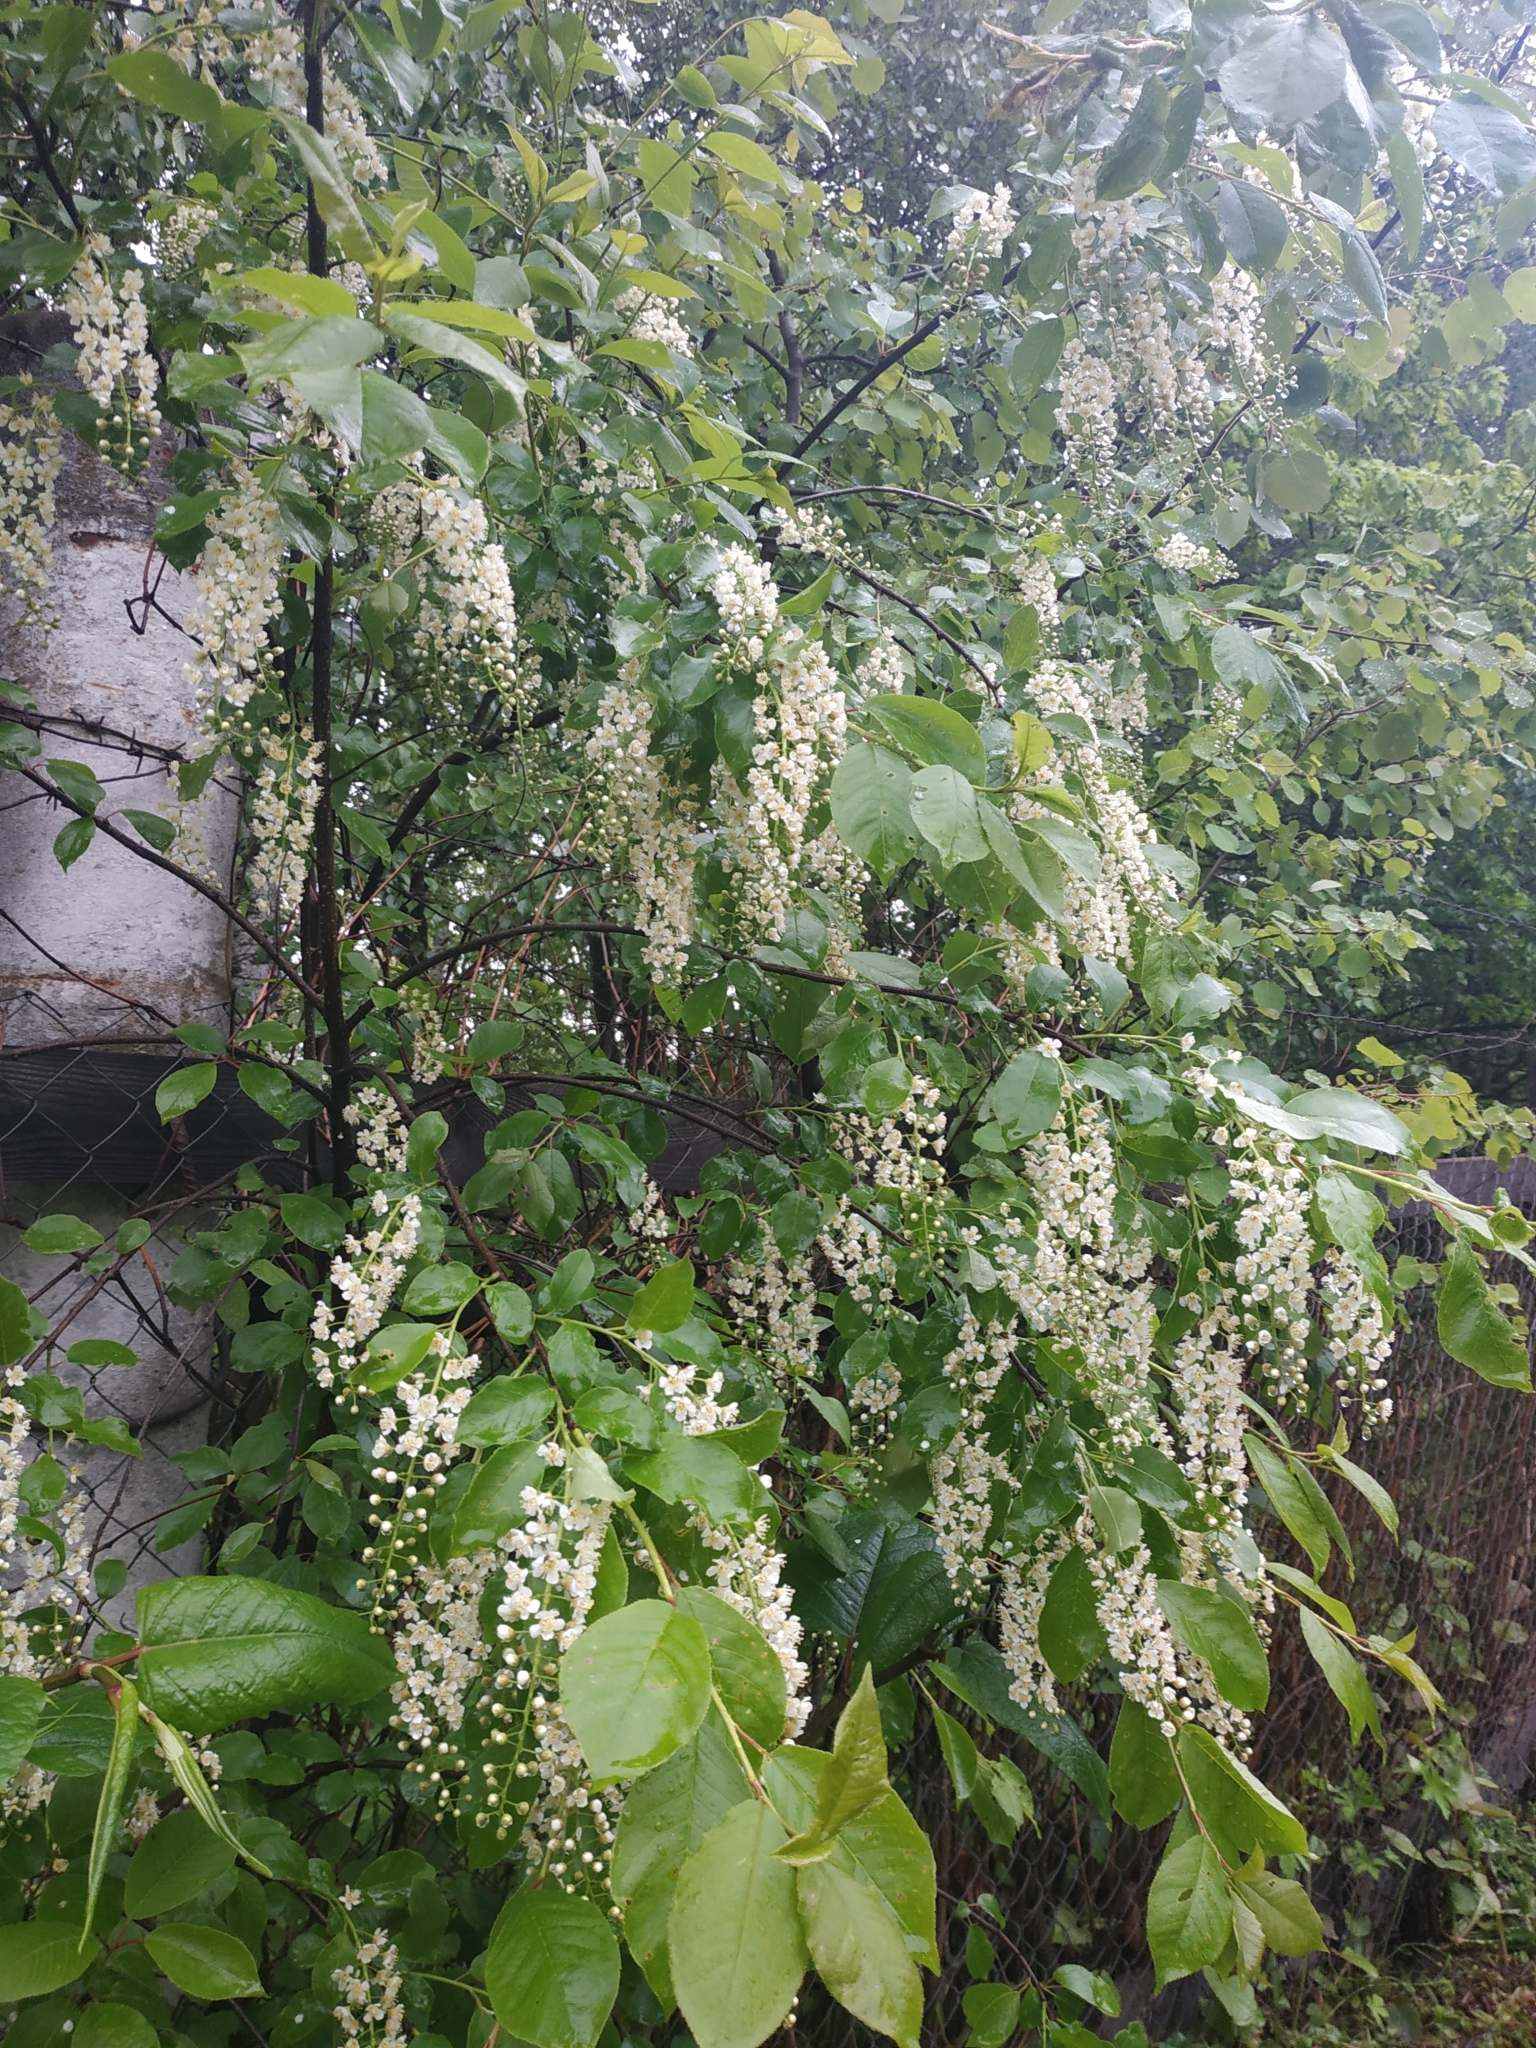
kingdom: Plantae
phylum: Tracheophyta
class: Magnoliopsida
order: Rosales
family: Rosaceae
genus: Prunus
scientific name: Prunus serotina
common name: Black cherry
